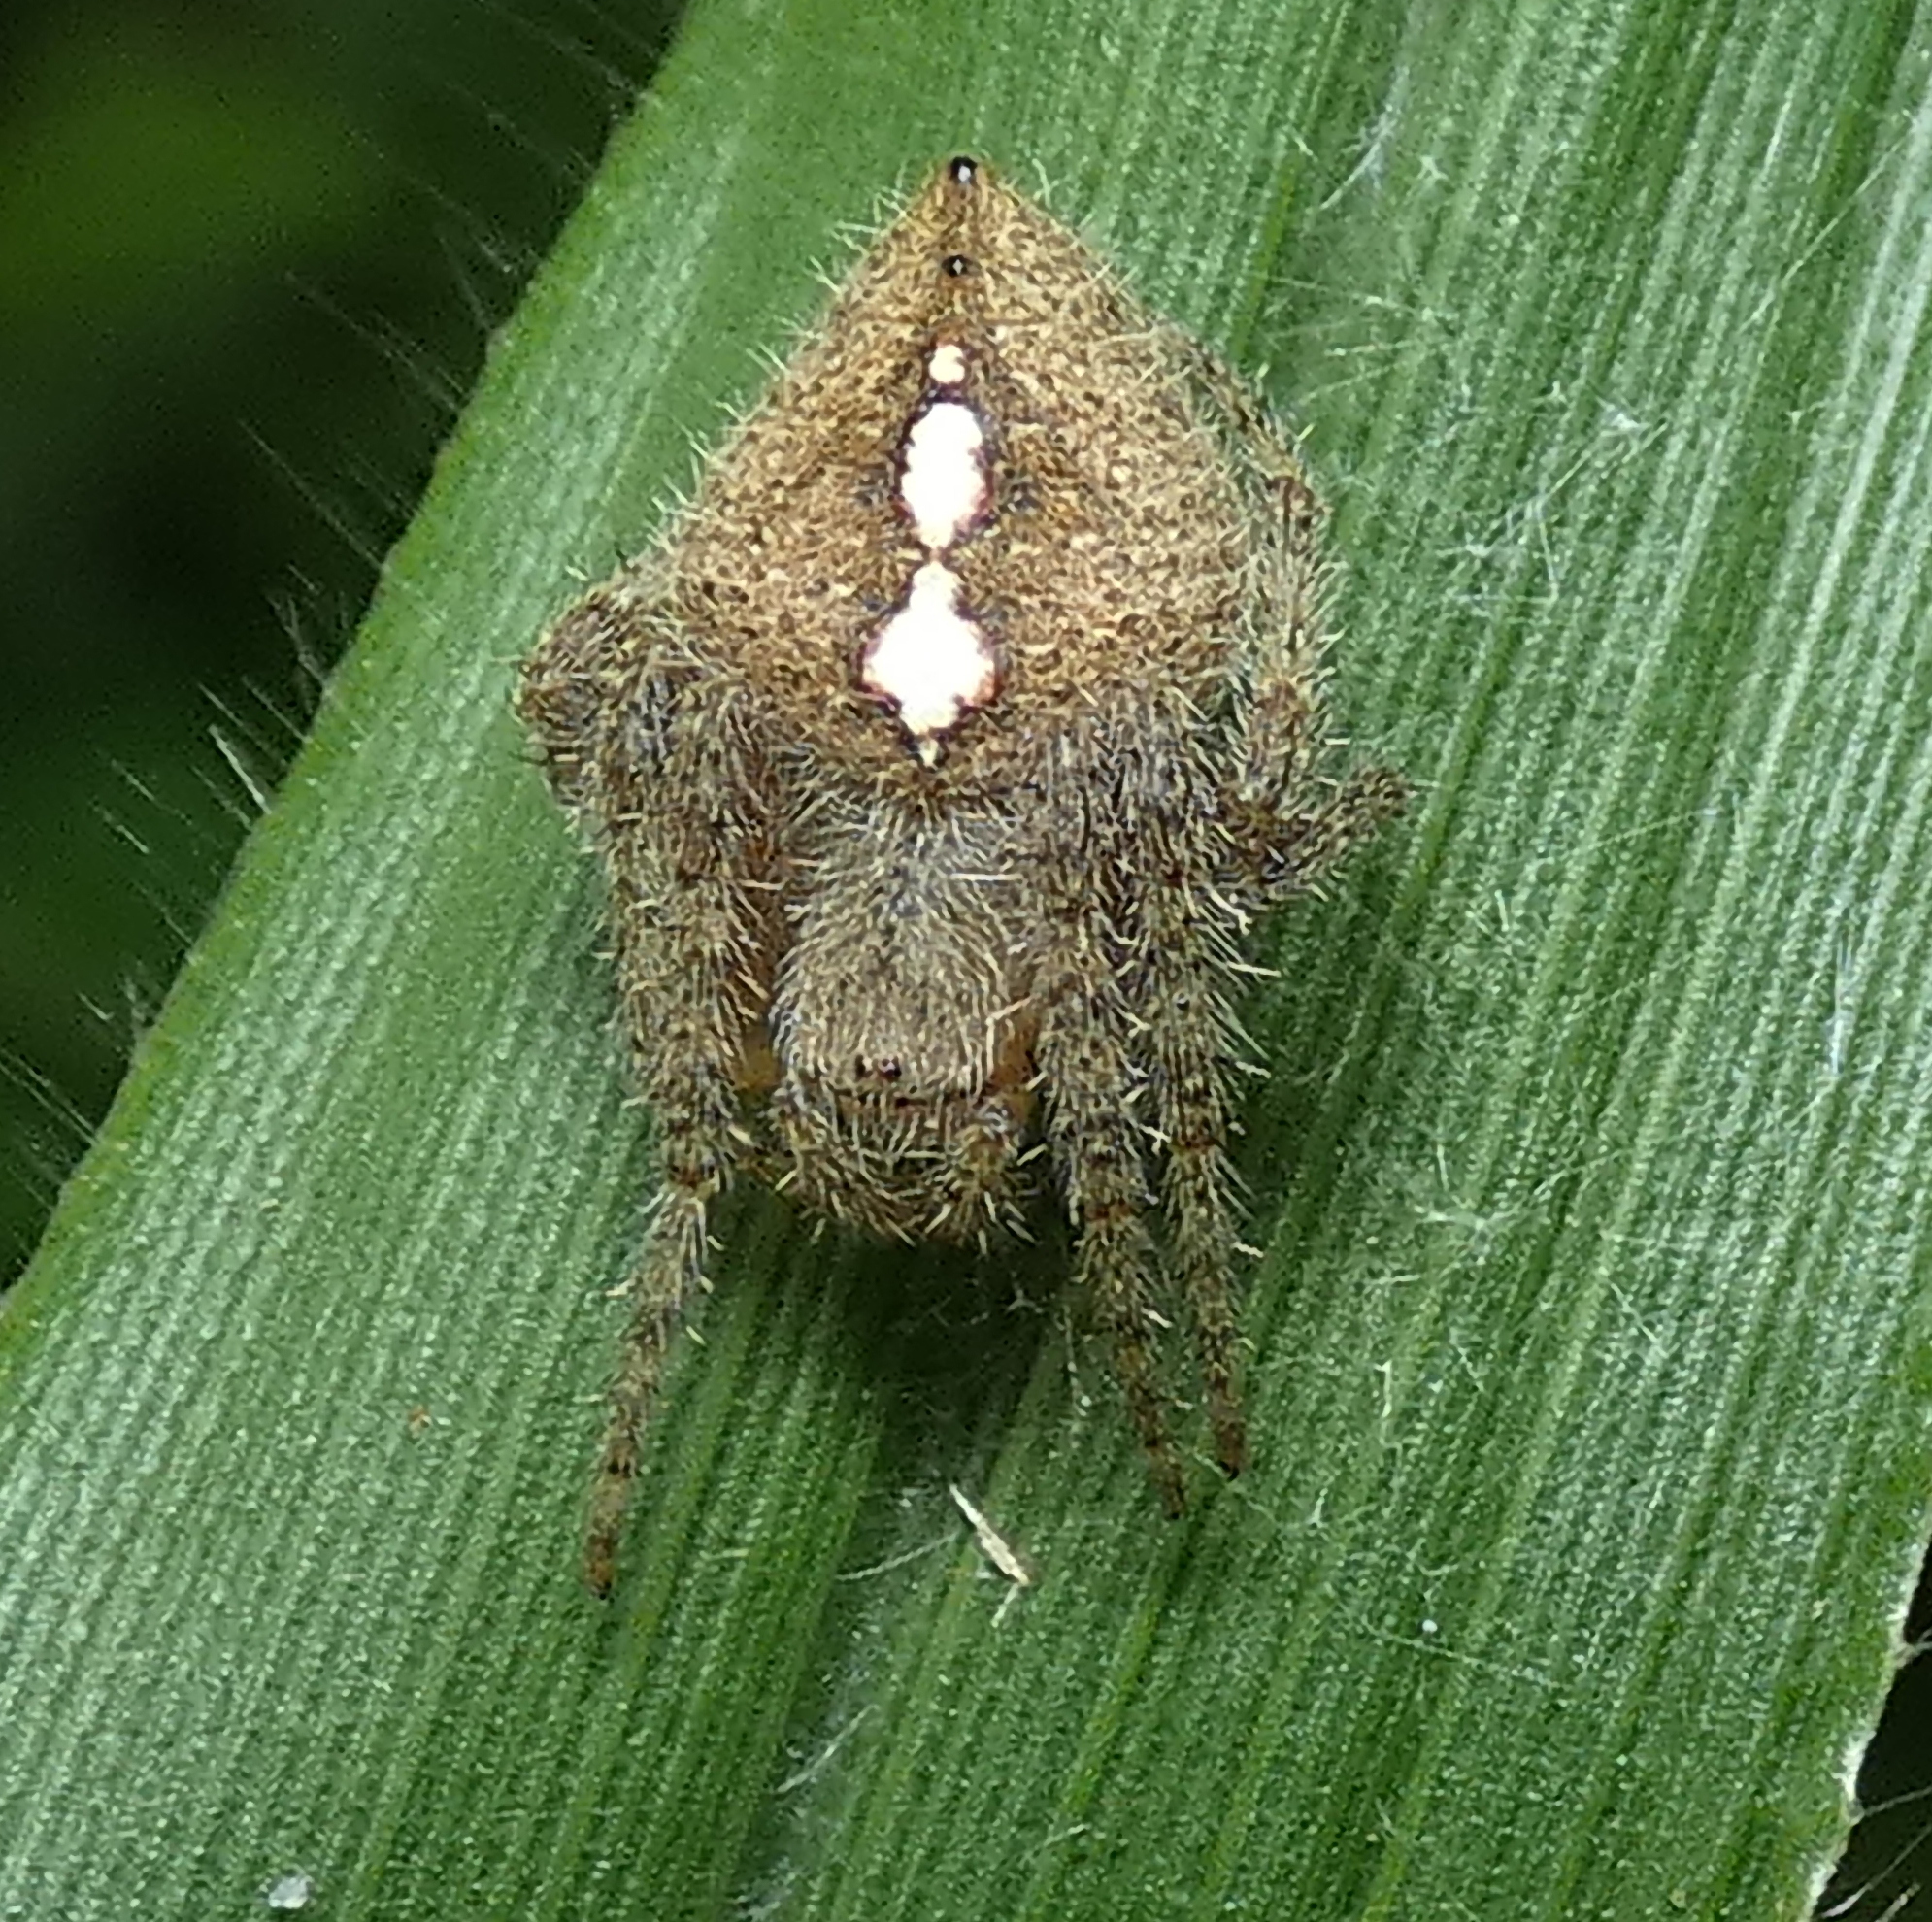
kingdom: Animalia
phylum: Arthropoda
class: Arachnida
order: Araneae
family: Araneidae
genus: Eriophora
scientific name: Eriophora edax
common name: Orb weavers
